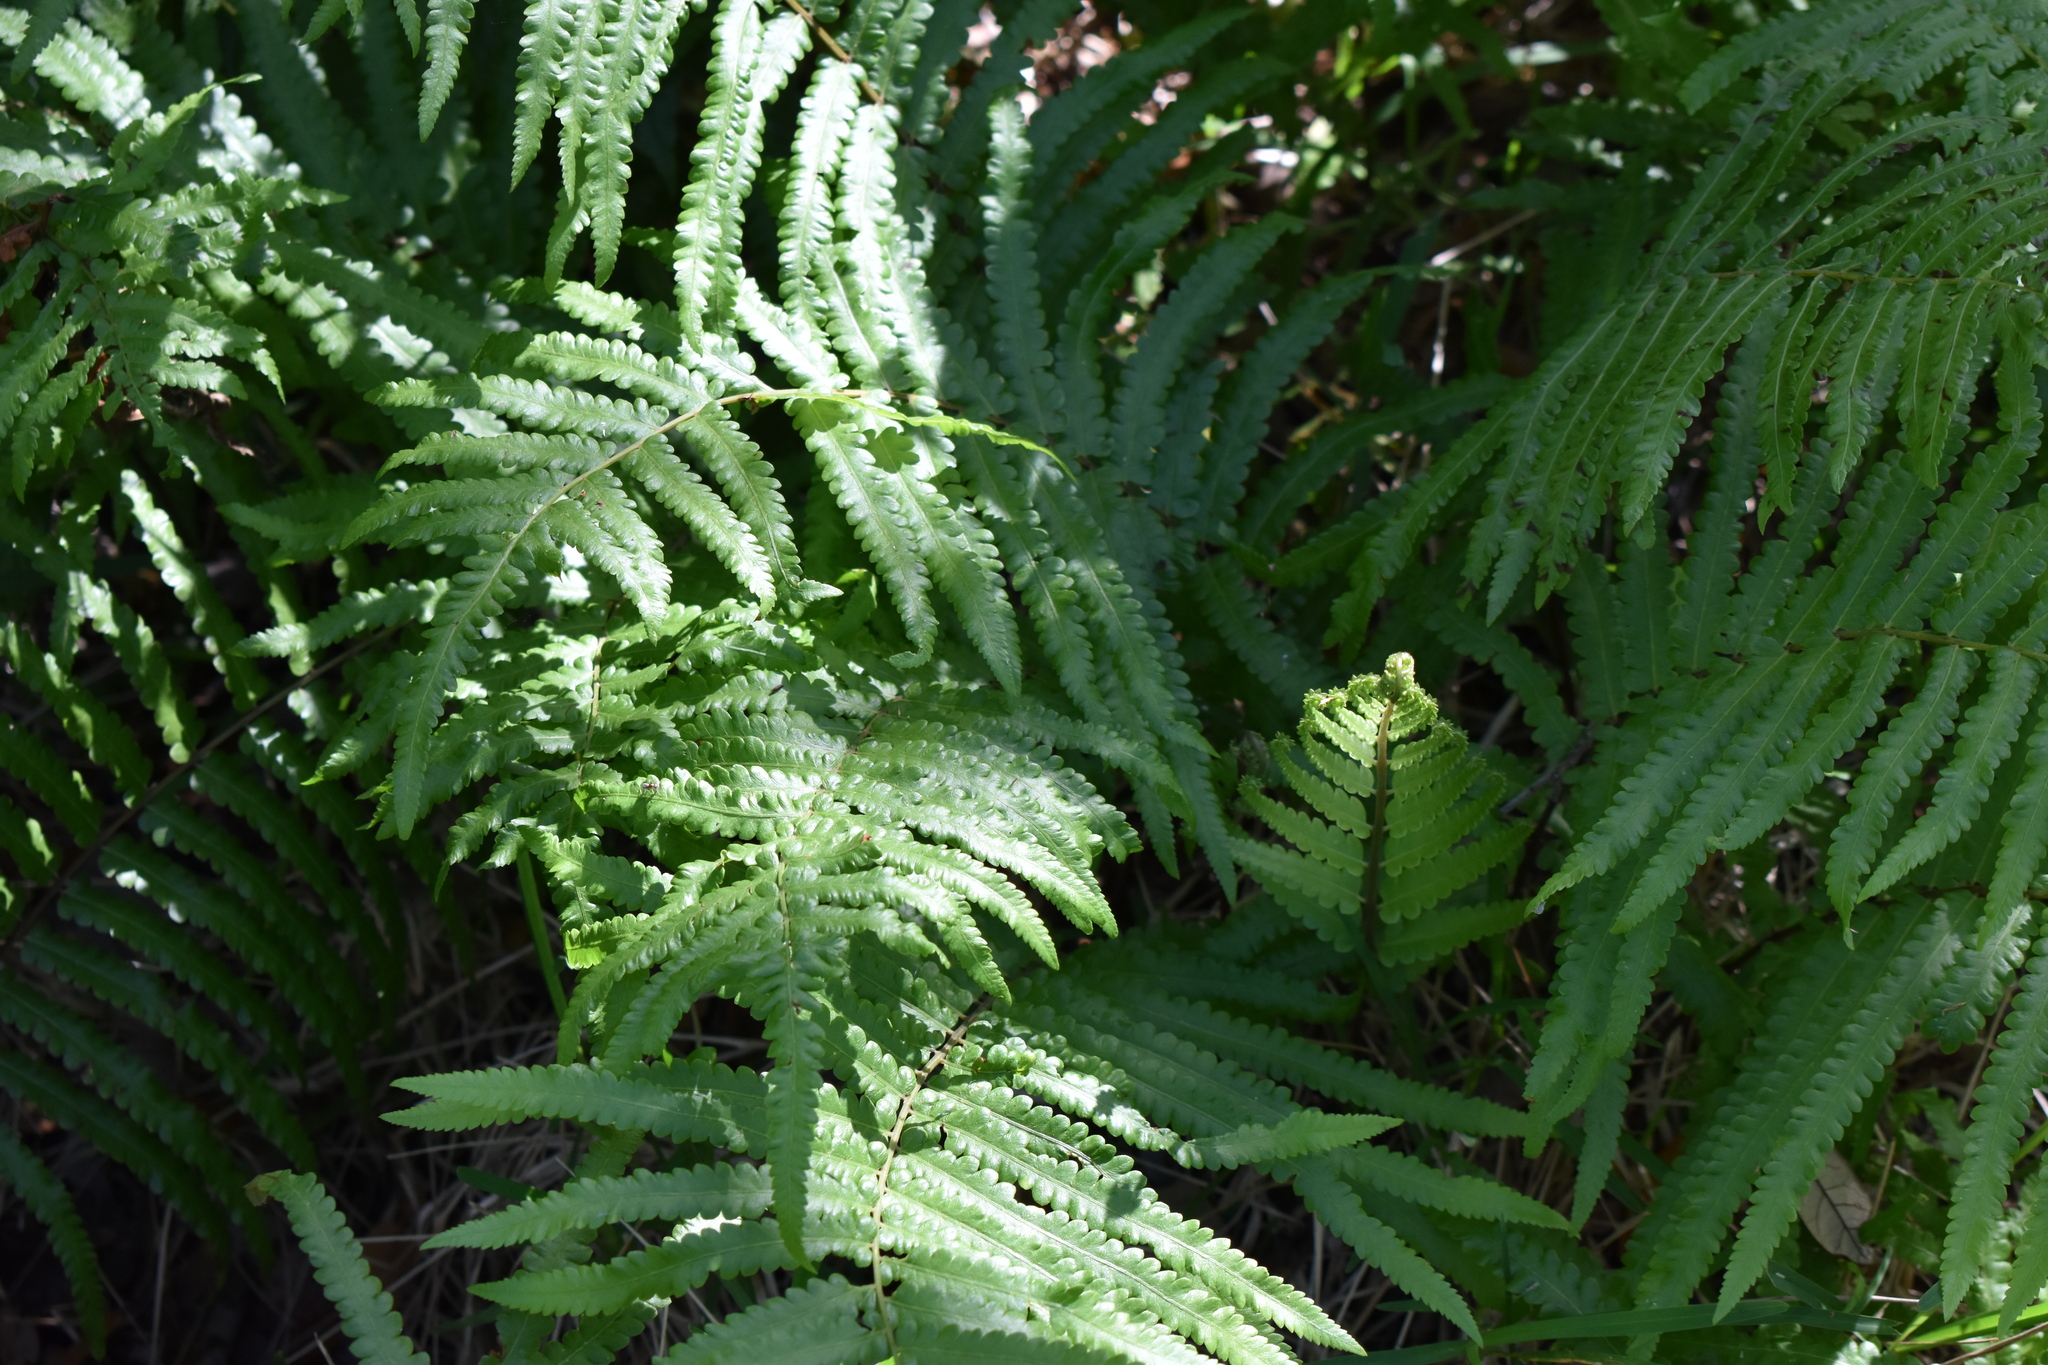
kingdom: Plantae
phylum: Tracheophyta
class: Polypodiopsida
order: Polypodiales
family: Thelypteridaceae
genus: Cyclosorus
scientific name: Cyclosorus interruptus
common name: Neke fern
